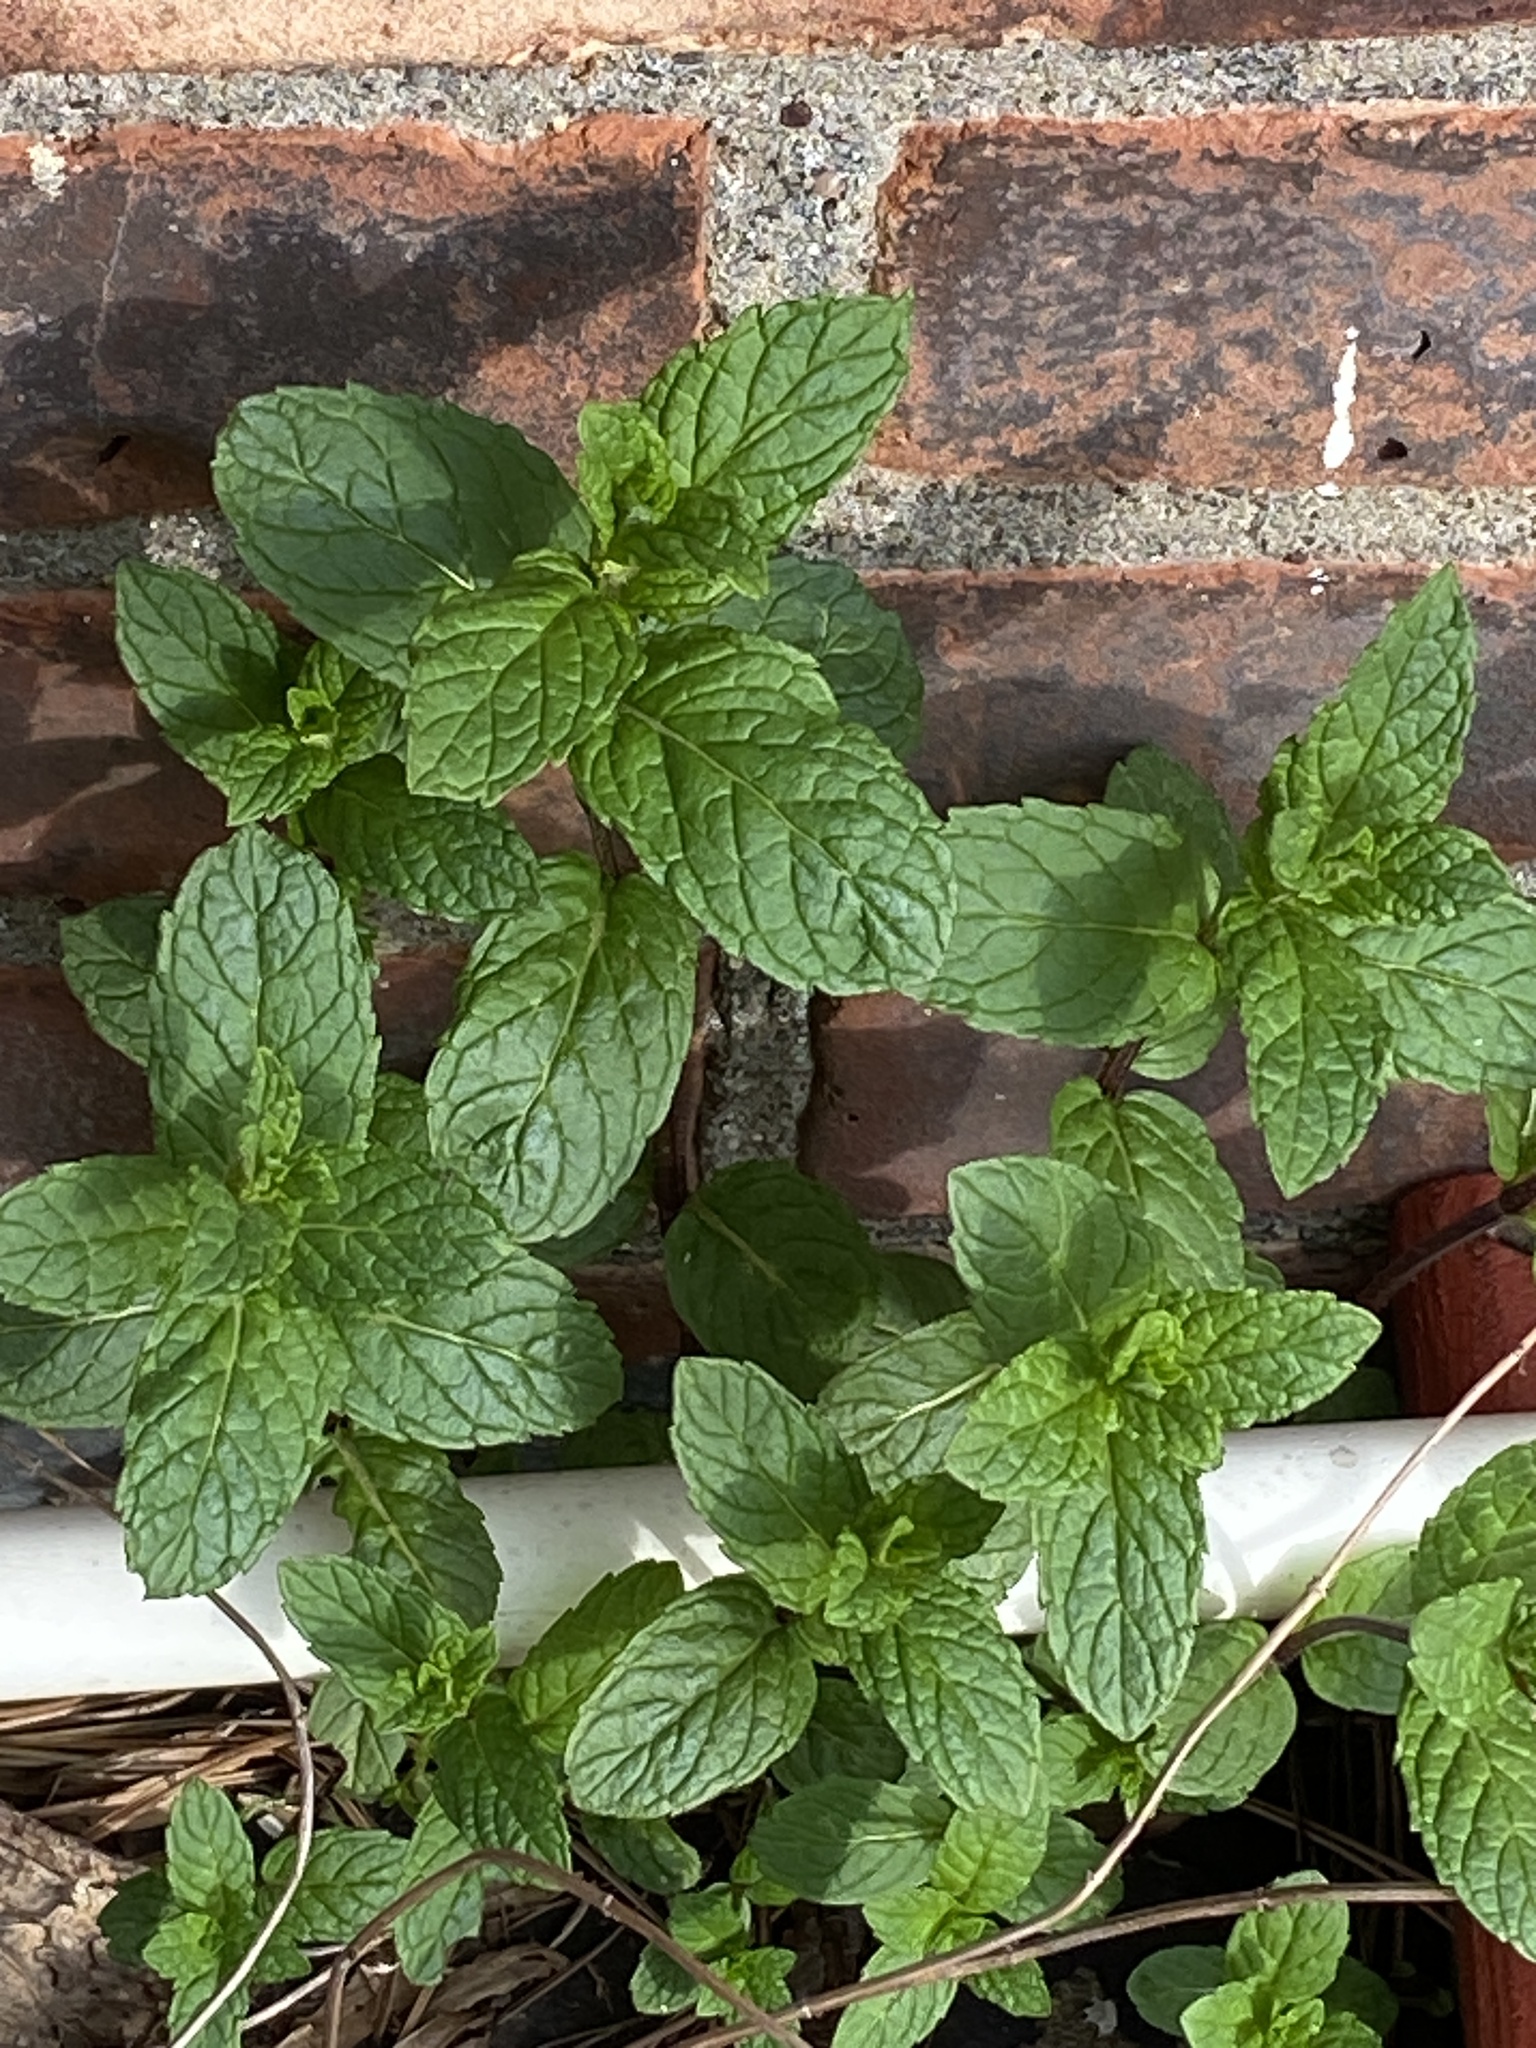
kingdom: Plantae
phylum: Tracheophyta
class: Magnoliopsida
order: Lamiales
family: Lamiaceae
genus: Mentha
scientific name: Mentha spicata
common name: Spearmint
